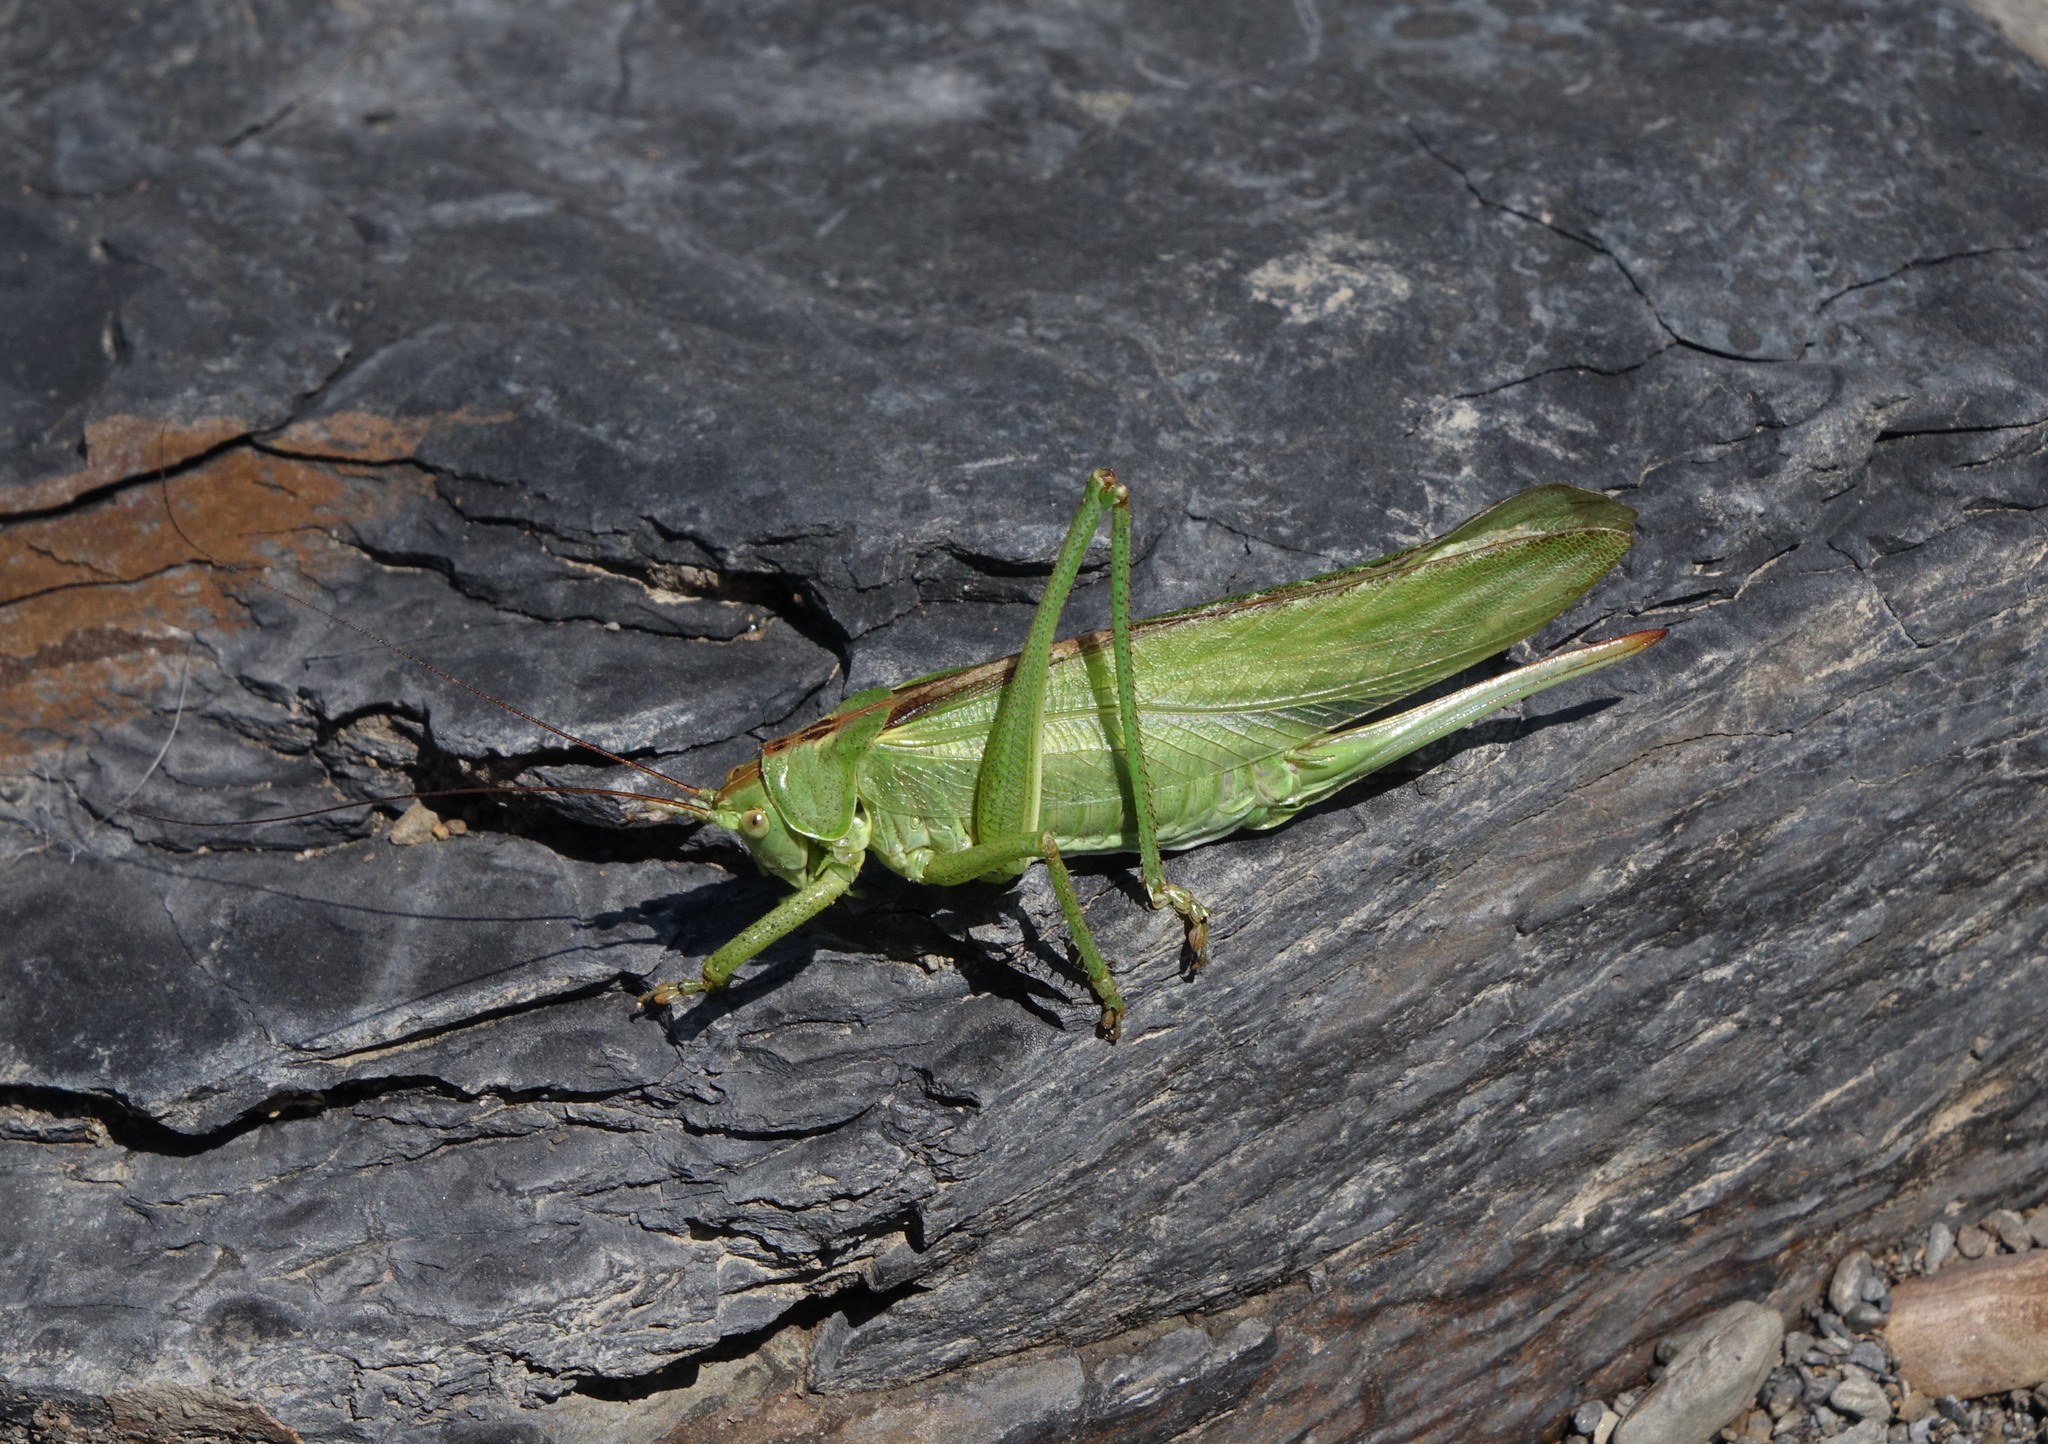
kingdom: Animalia
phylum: Arthropoda
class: Insecta
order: Orthoptera
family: Tettigoniidae
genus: Tettigonia
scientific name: Tettigonia viridissima
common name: Great green bush-cricket
